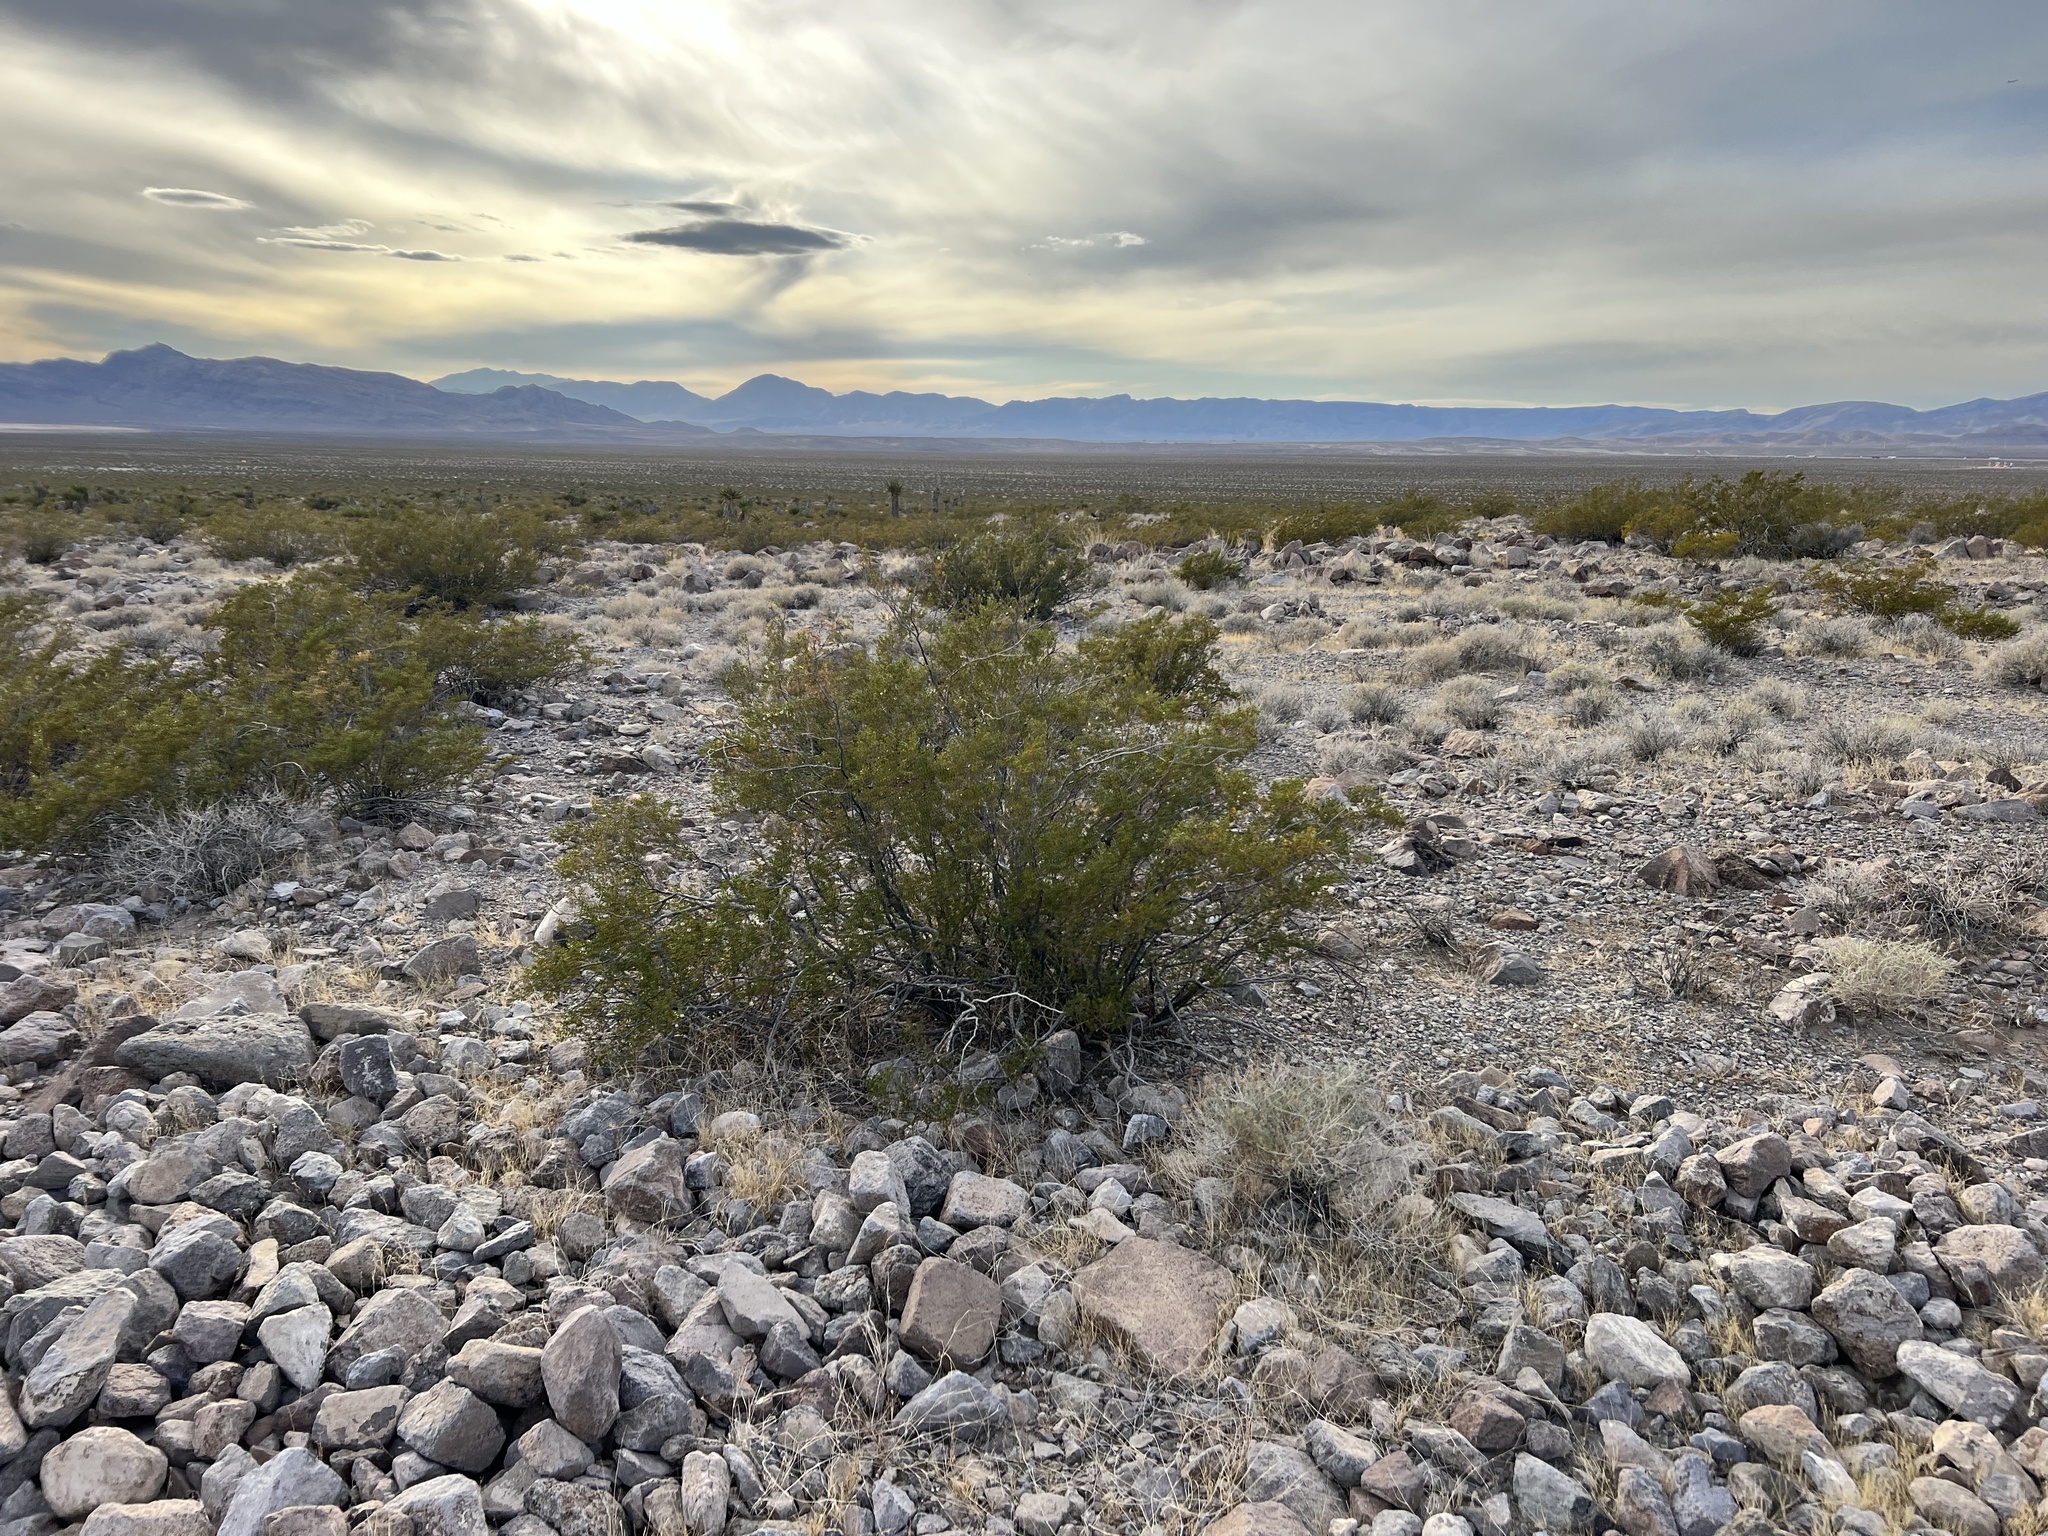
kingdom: Plantae
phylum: Tracheophyta
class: Magnoliopsida
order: Zygophyllales
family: Zygophyllaceae
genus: Larrea
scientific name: Larrea tridentata
